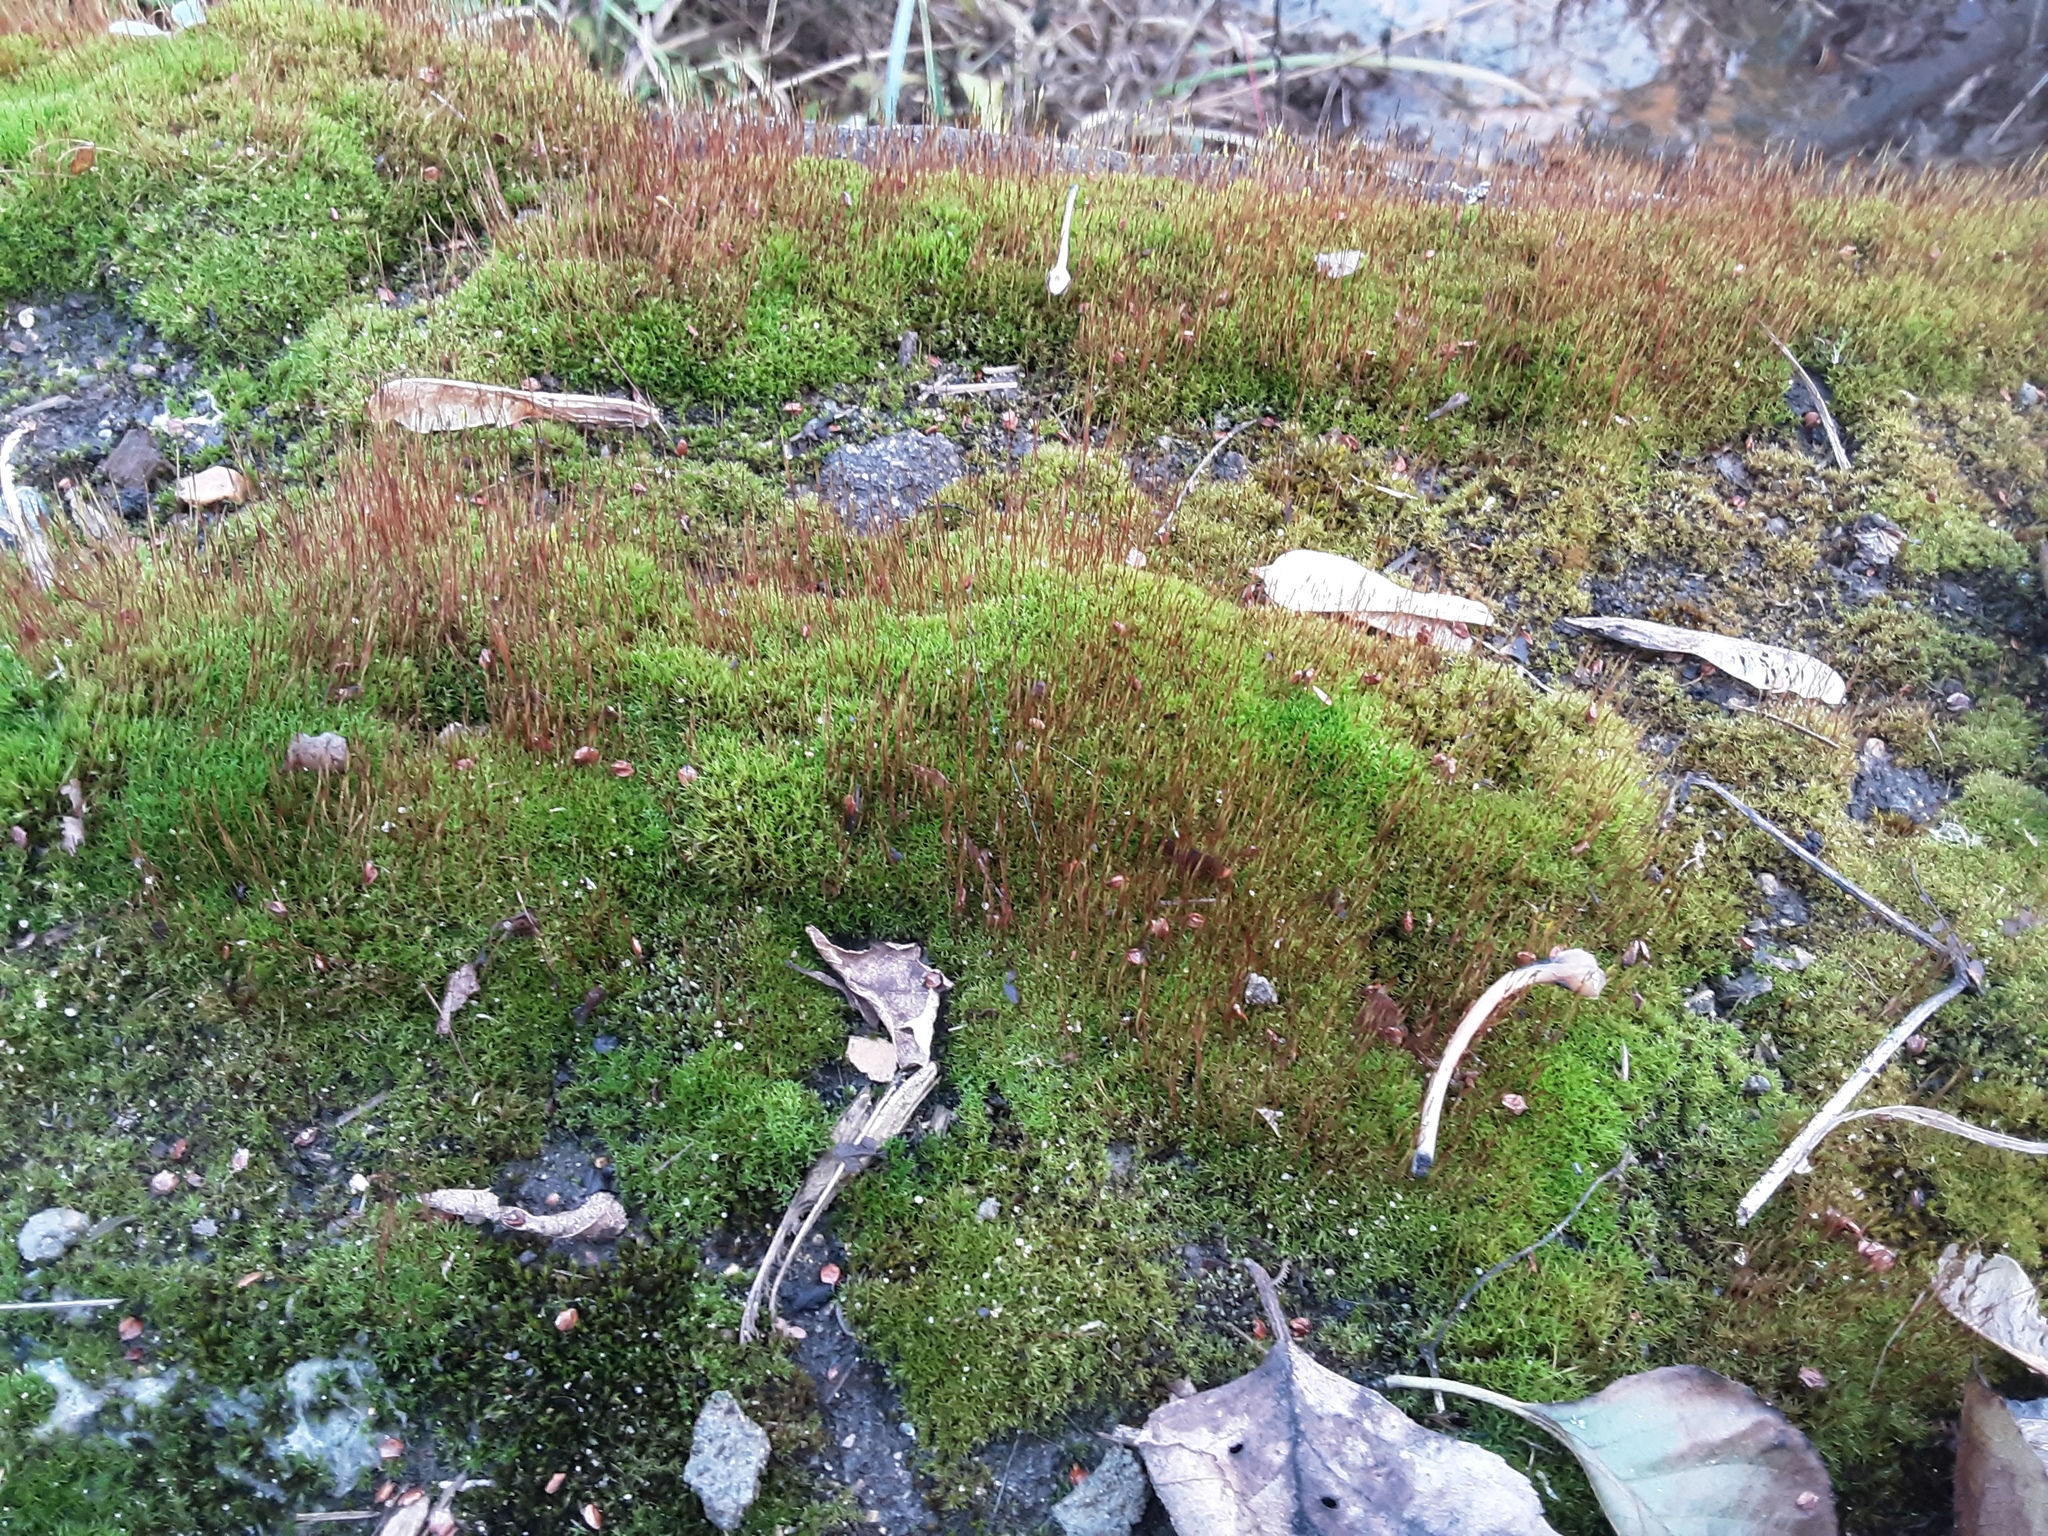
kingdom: Plantae
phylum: Bryophyta
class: Bryopsida
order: Dicranales
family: Ditrichaceae
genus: Ceratodon
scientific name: Ceratodon purpureus
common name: Redshank
